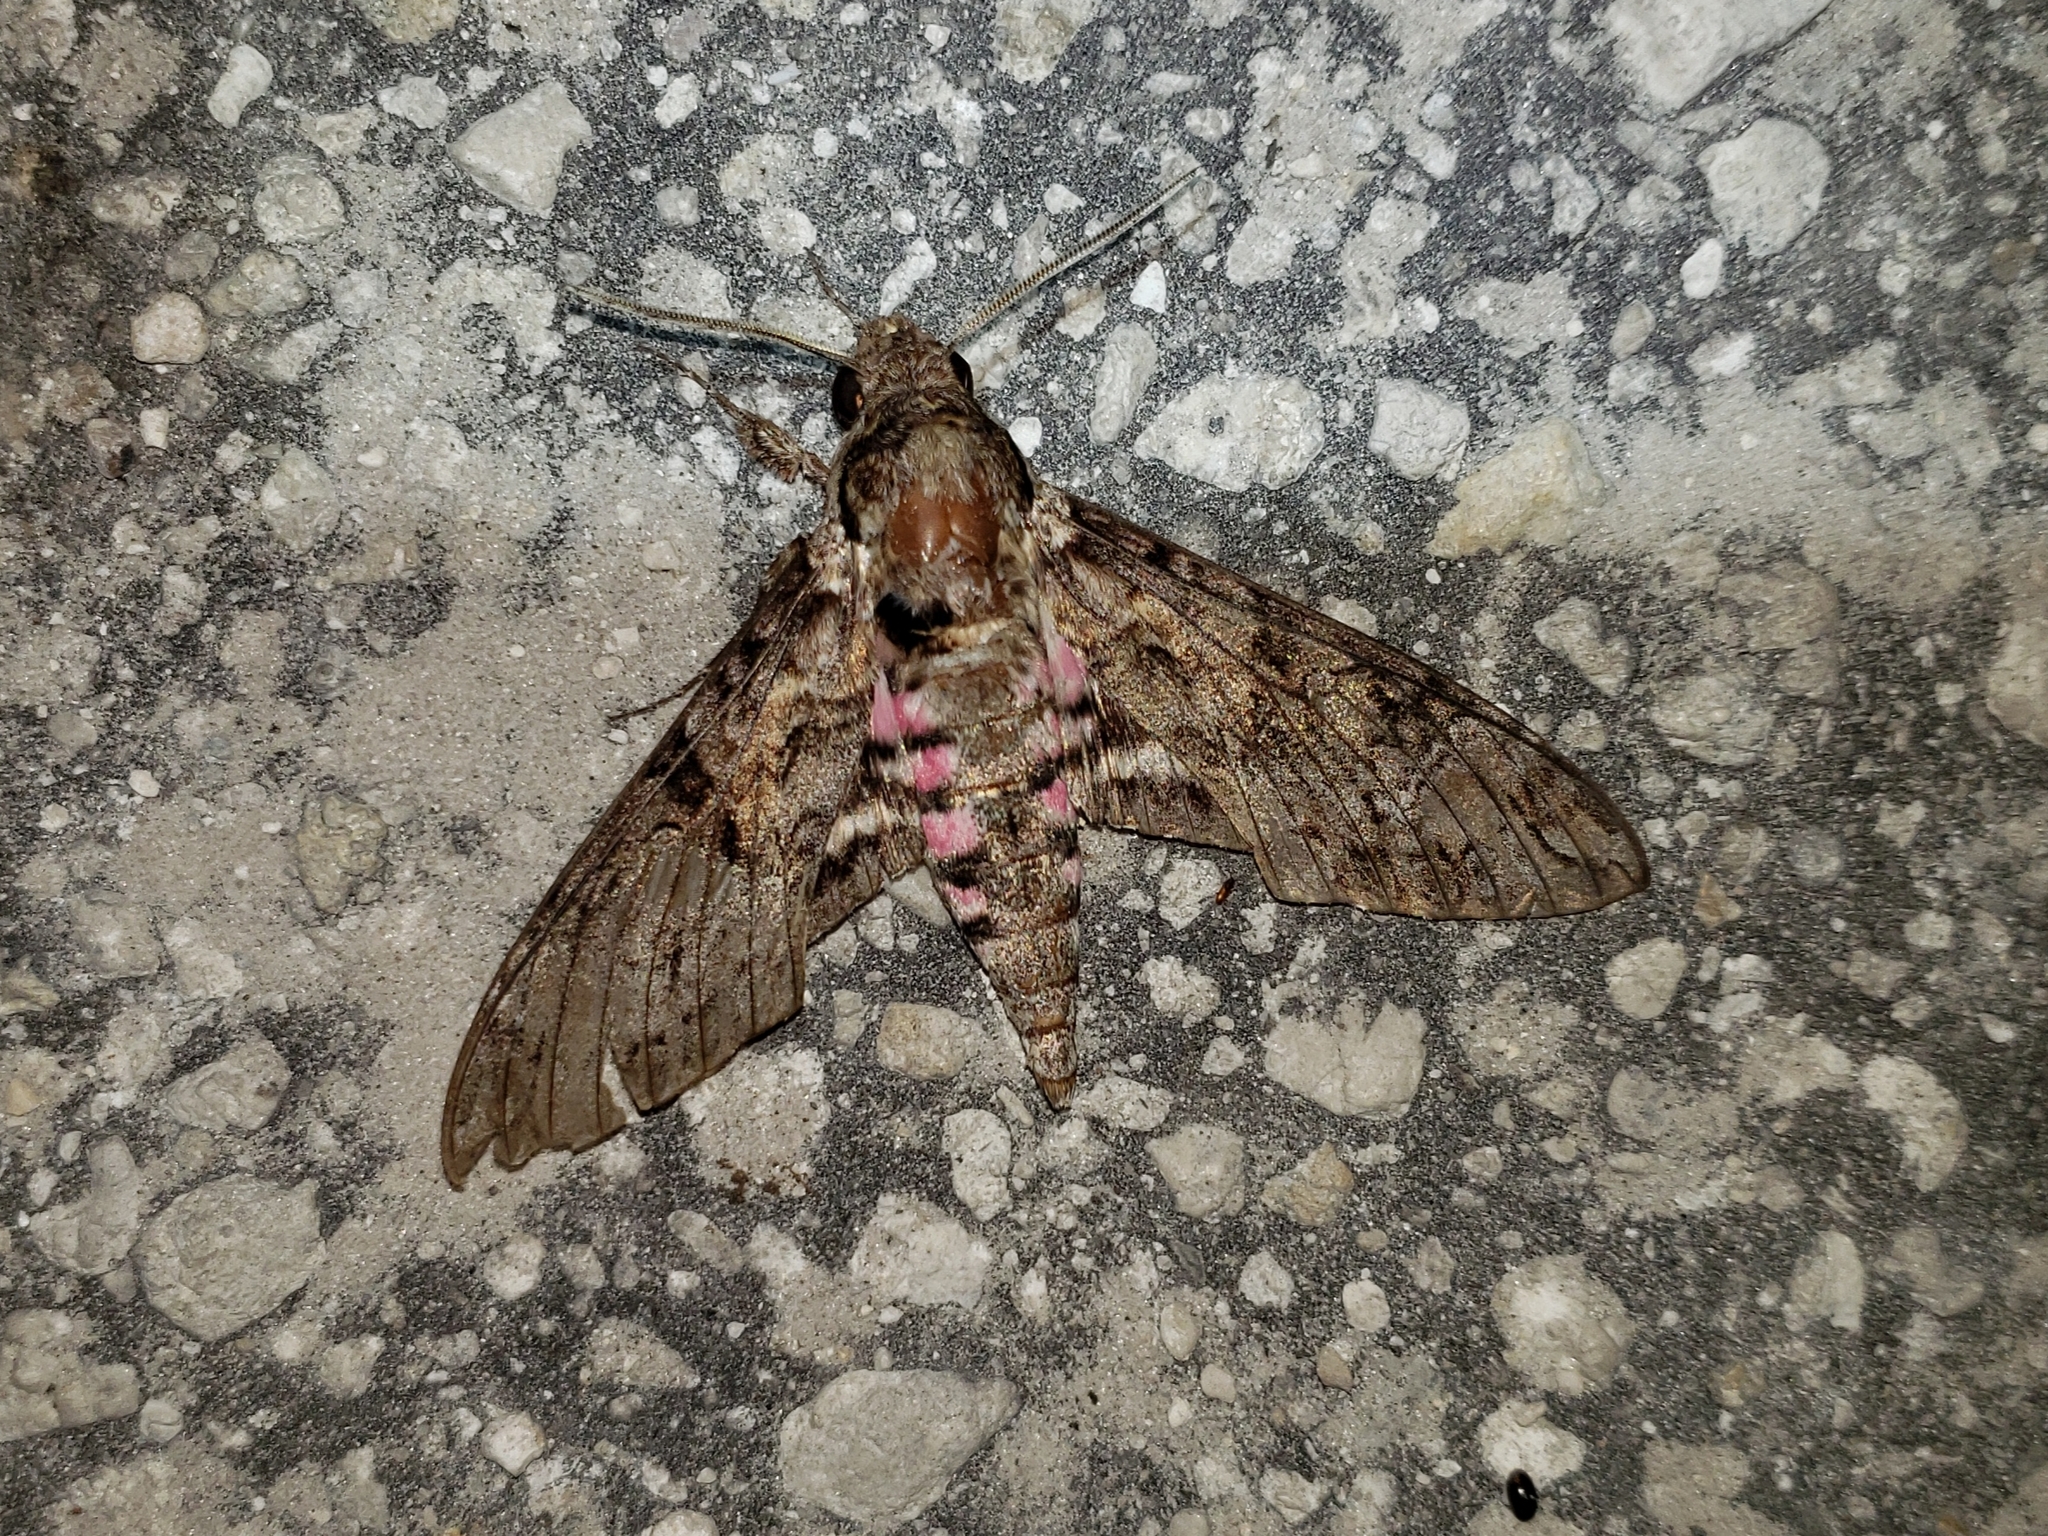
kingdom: Animalia
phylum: Arthropoda
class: Insecta
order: Lepidoptera
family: Sphingidae
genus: Agrius
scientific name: Agrius cingulata
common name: Pink-spotted hawkmoth
